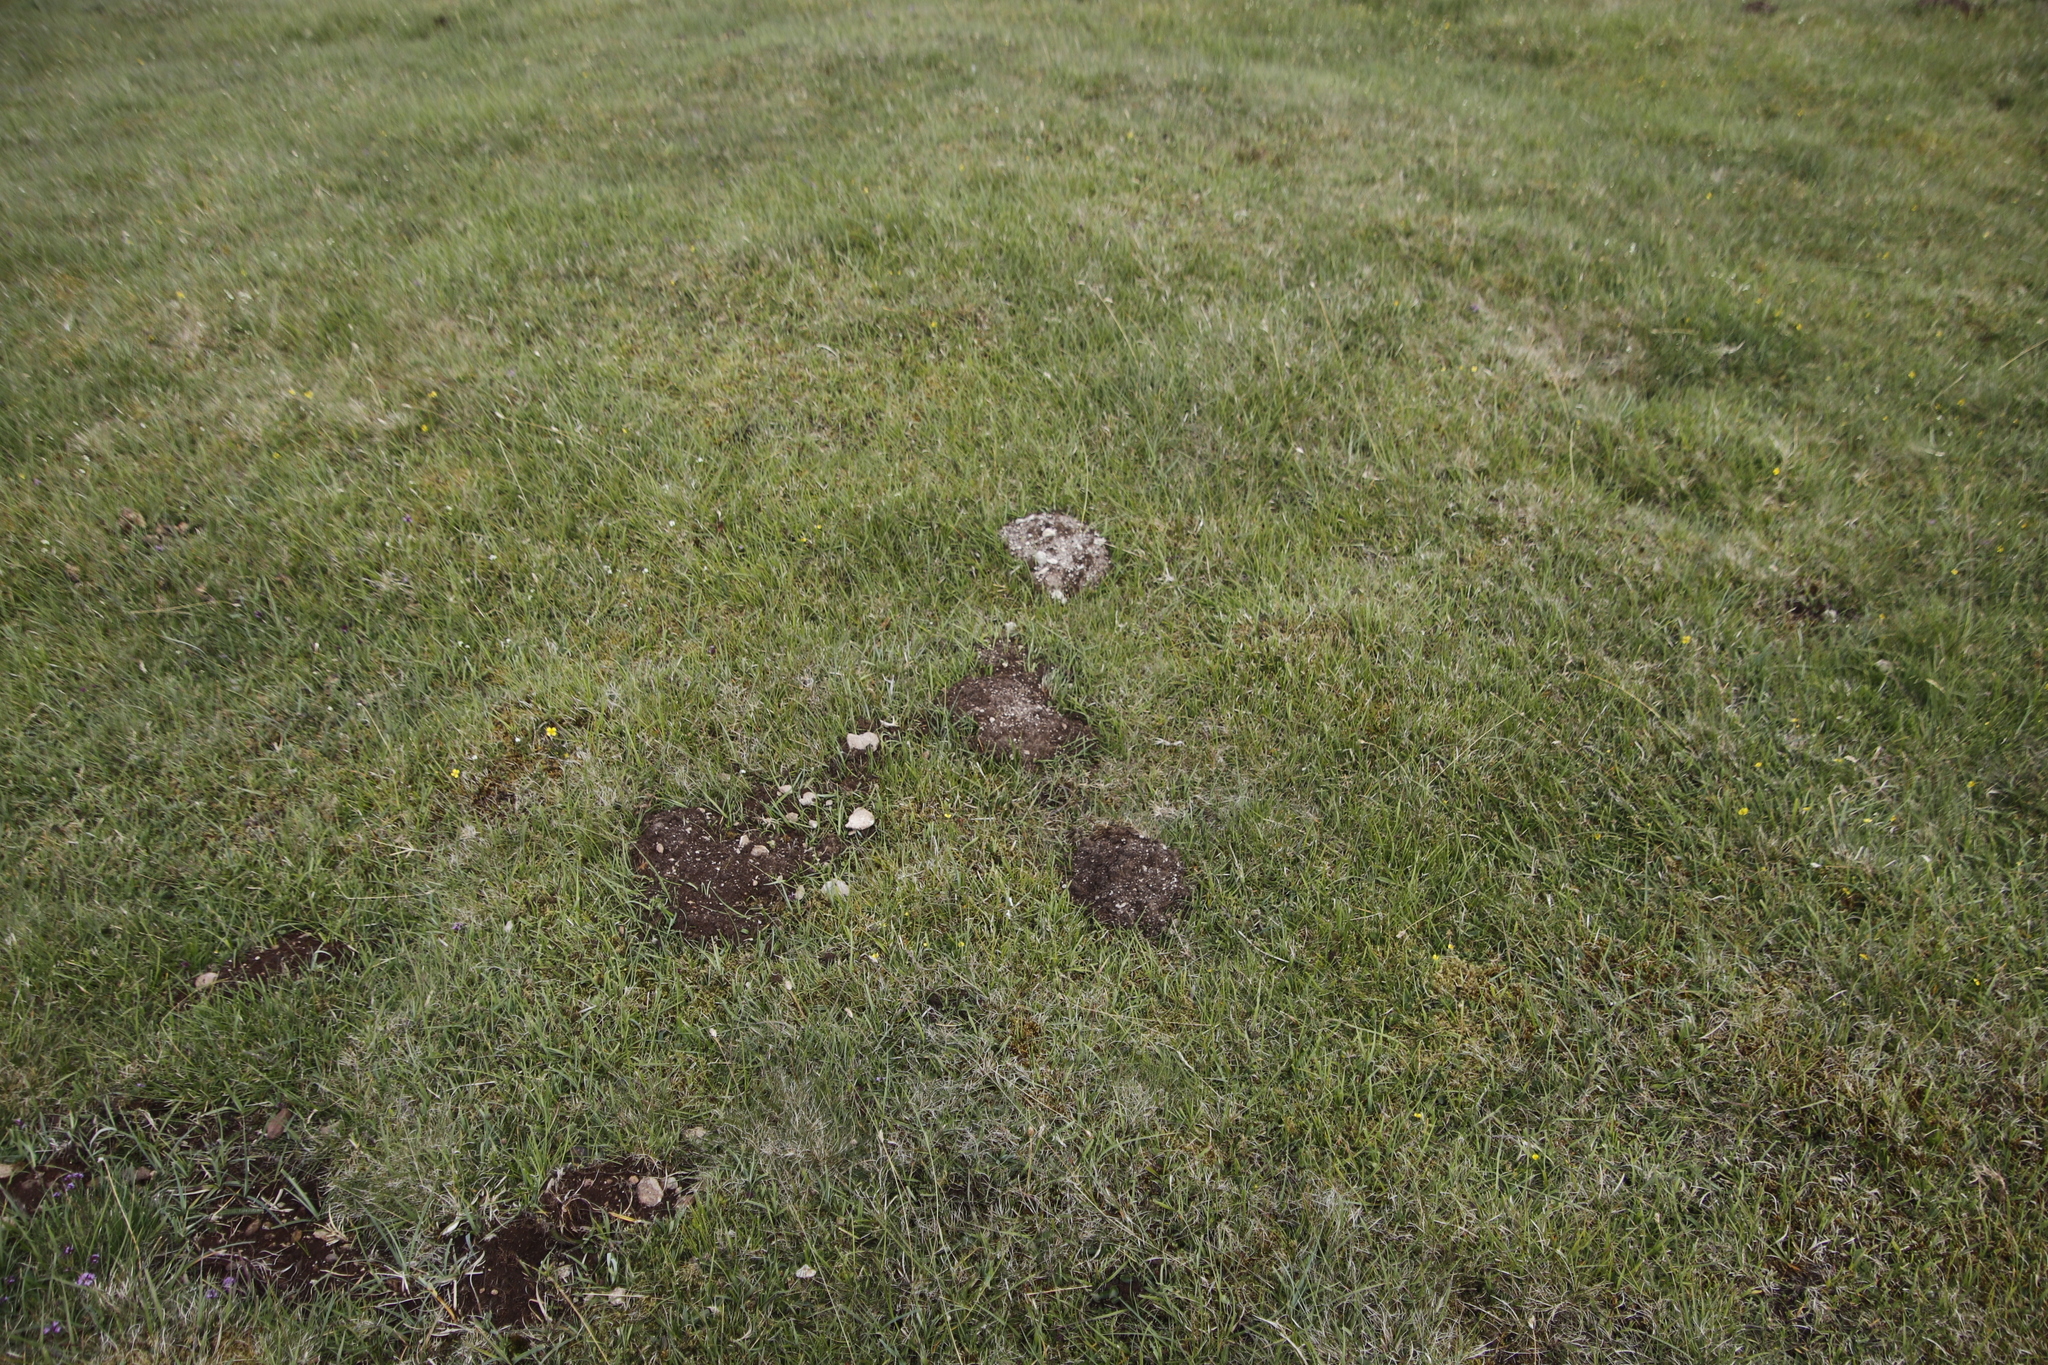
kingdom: Animalia
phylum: Chordata
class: Mammalia
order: Soricomorpha
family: Talpidae
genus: Talpa
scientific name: Talpa europaea
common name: European mole
